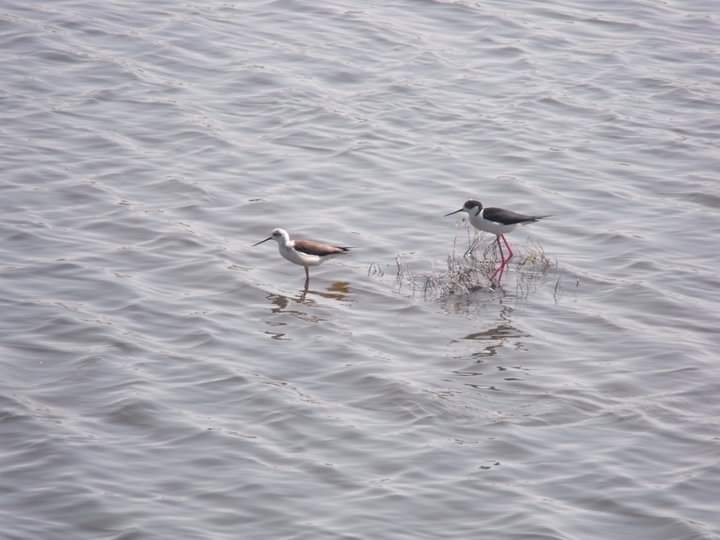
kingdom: Animalia
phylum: Chordata
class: Aves
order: Charadriiformes
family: Recurvirostridae
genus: Himantopus
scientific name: Himantopus himantopus
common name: Black-winged stilt
